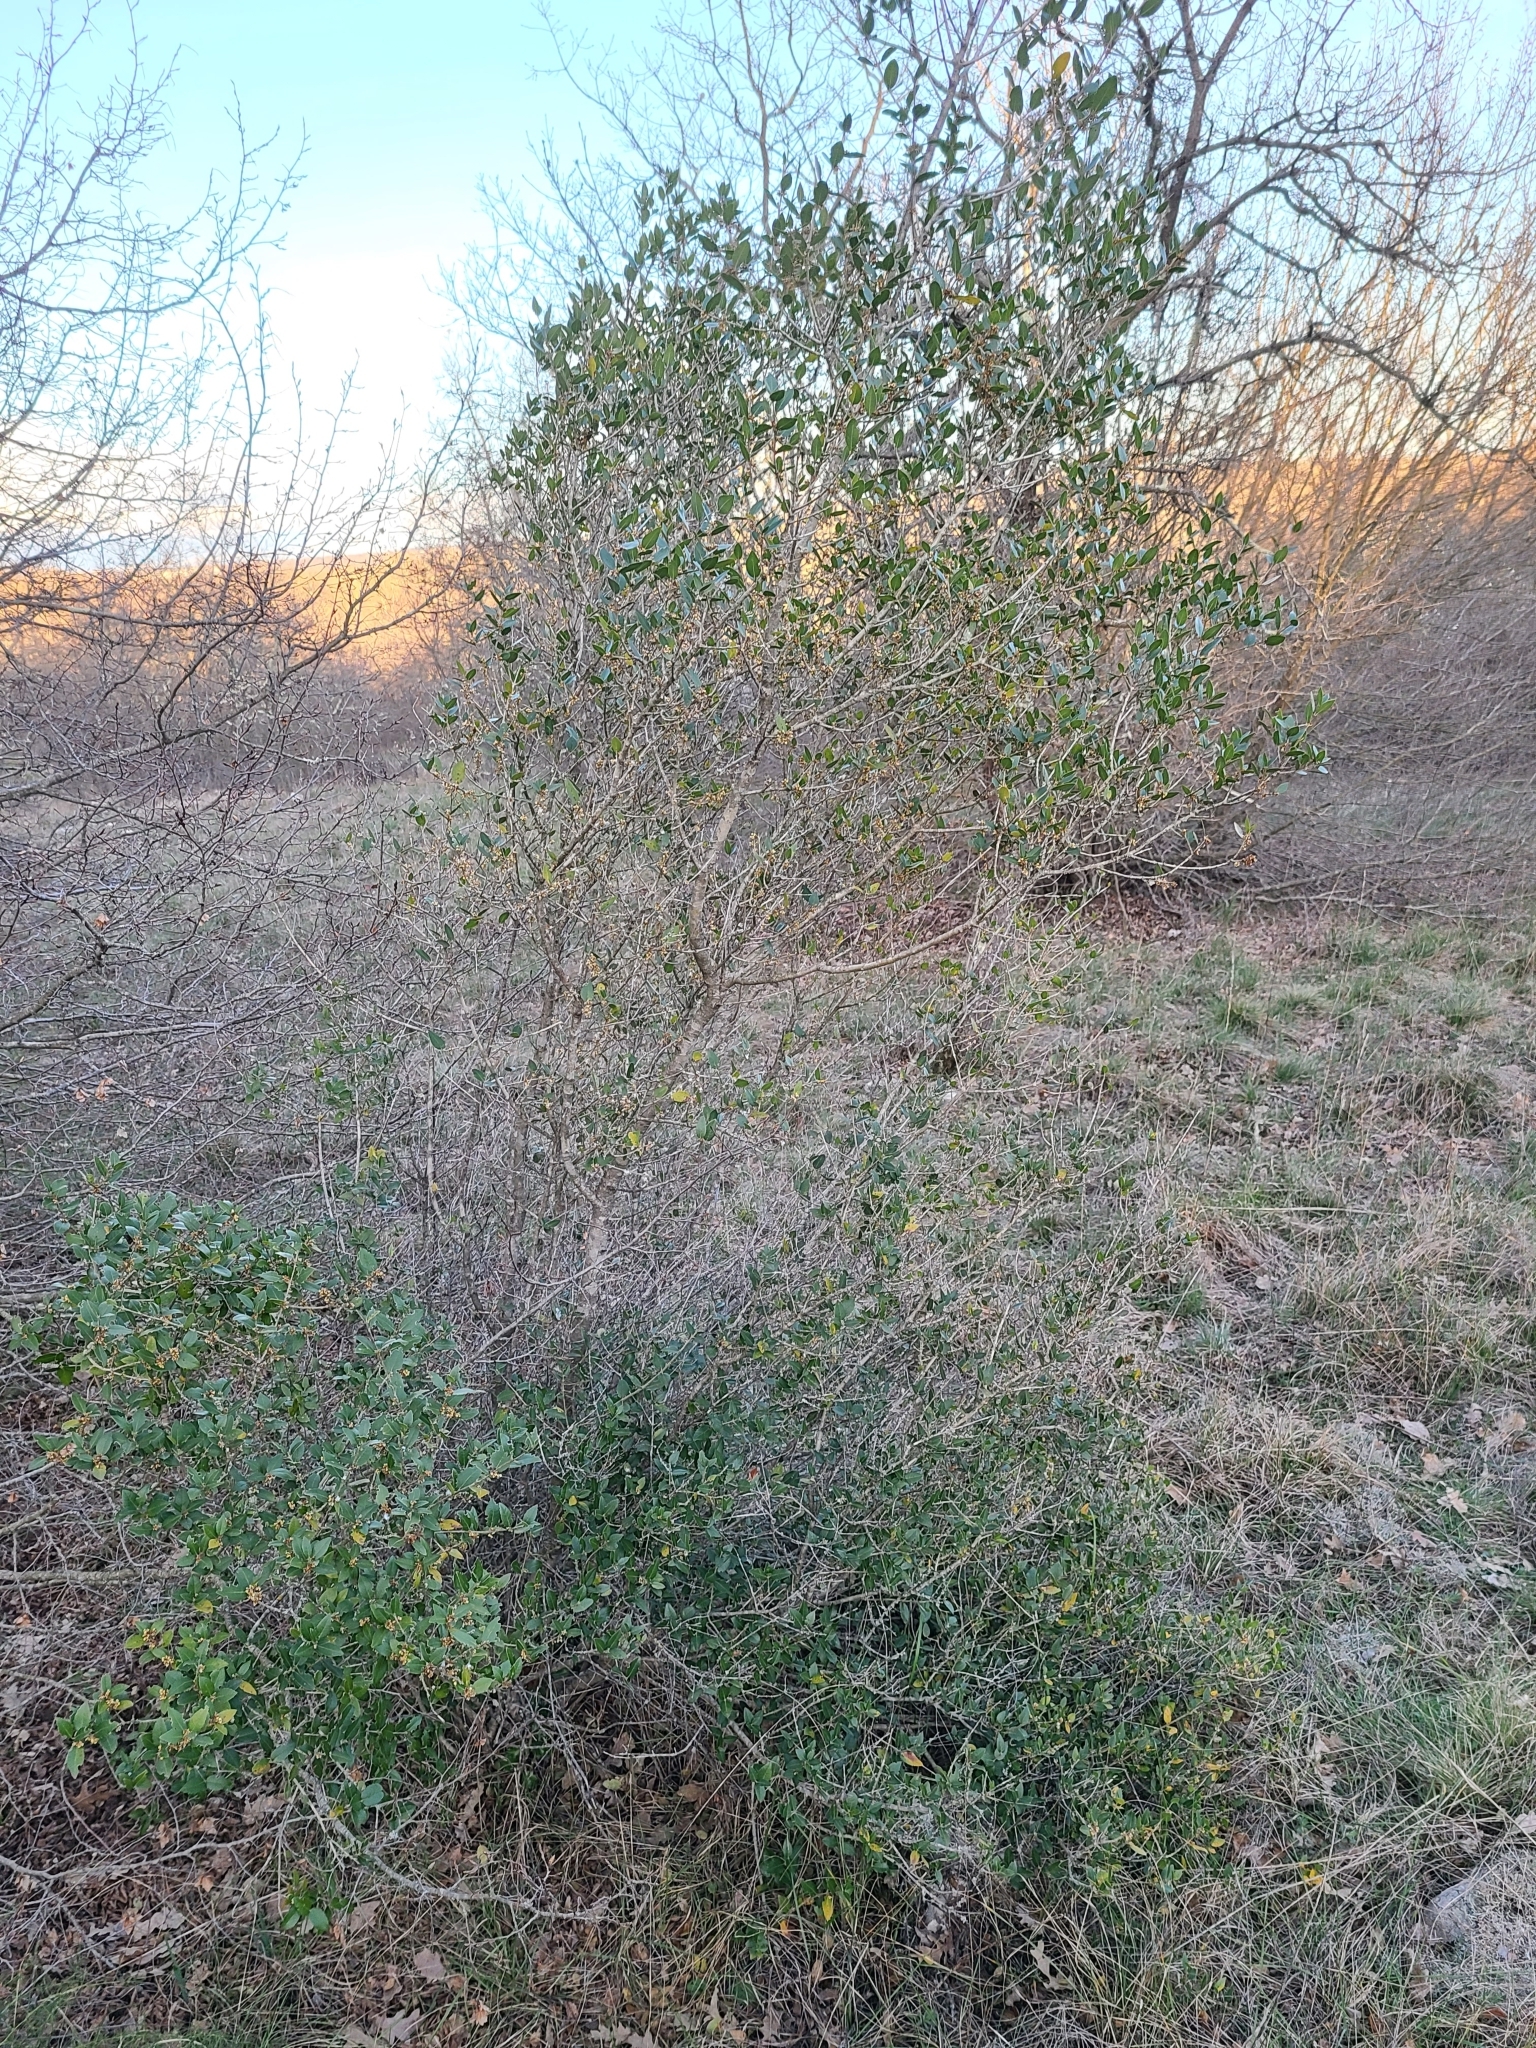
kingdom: Plantae
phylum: Tracheophyta
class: Magnoliopsida
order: Lamiales
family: Oleaceae
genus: Phillyrea
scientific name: Phillyrea latifolia
